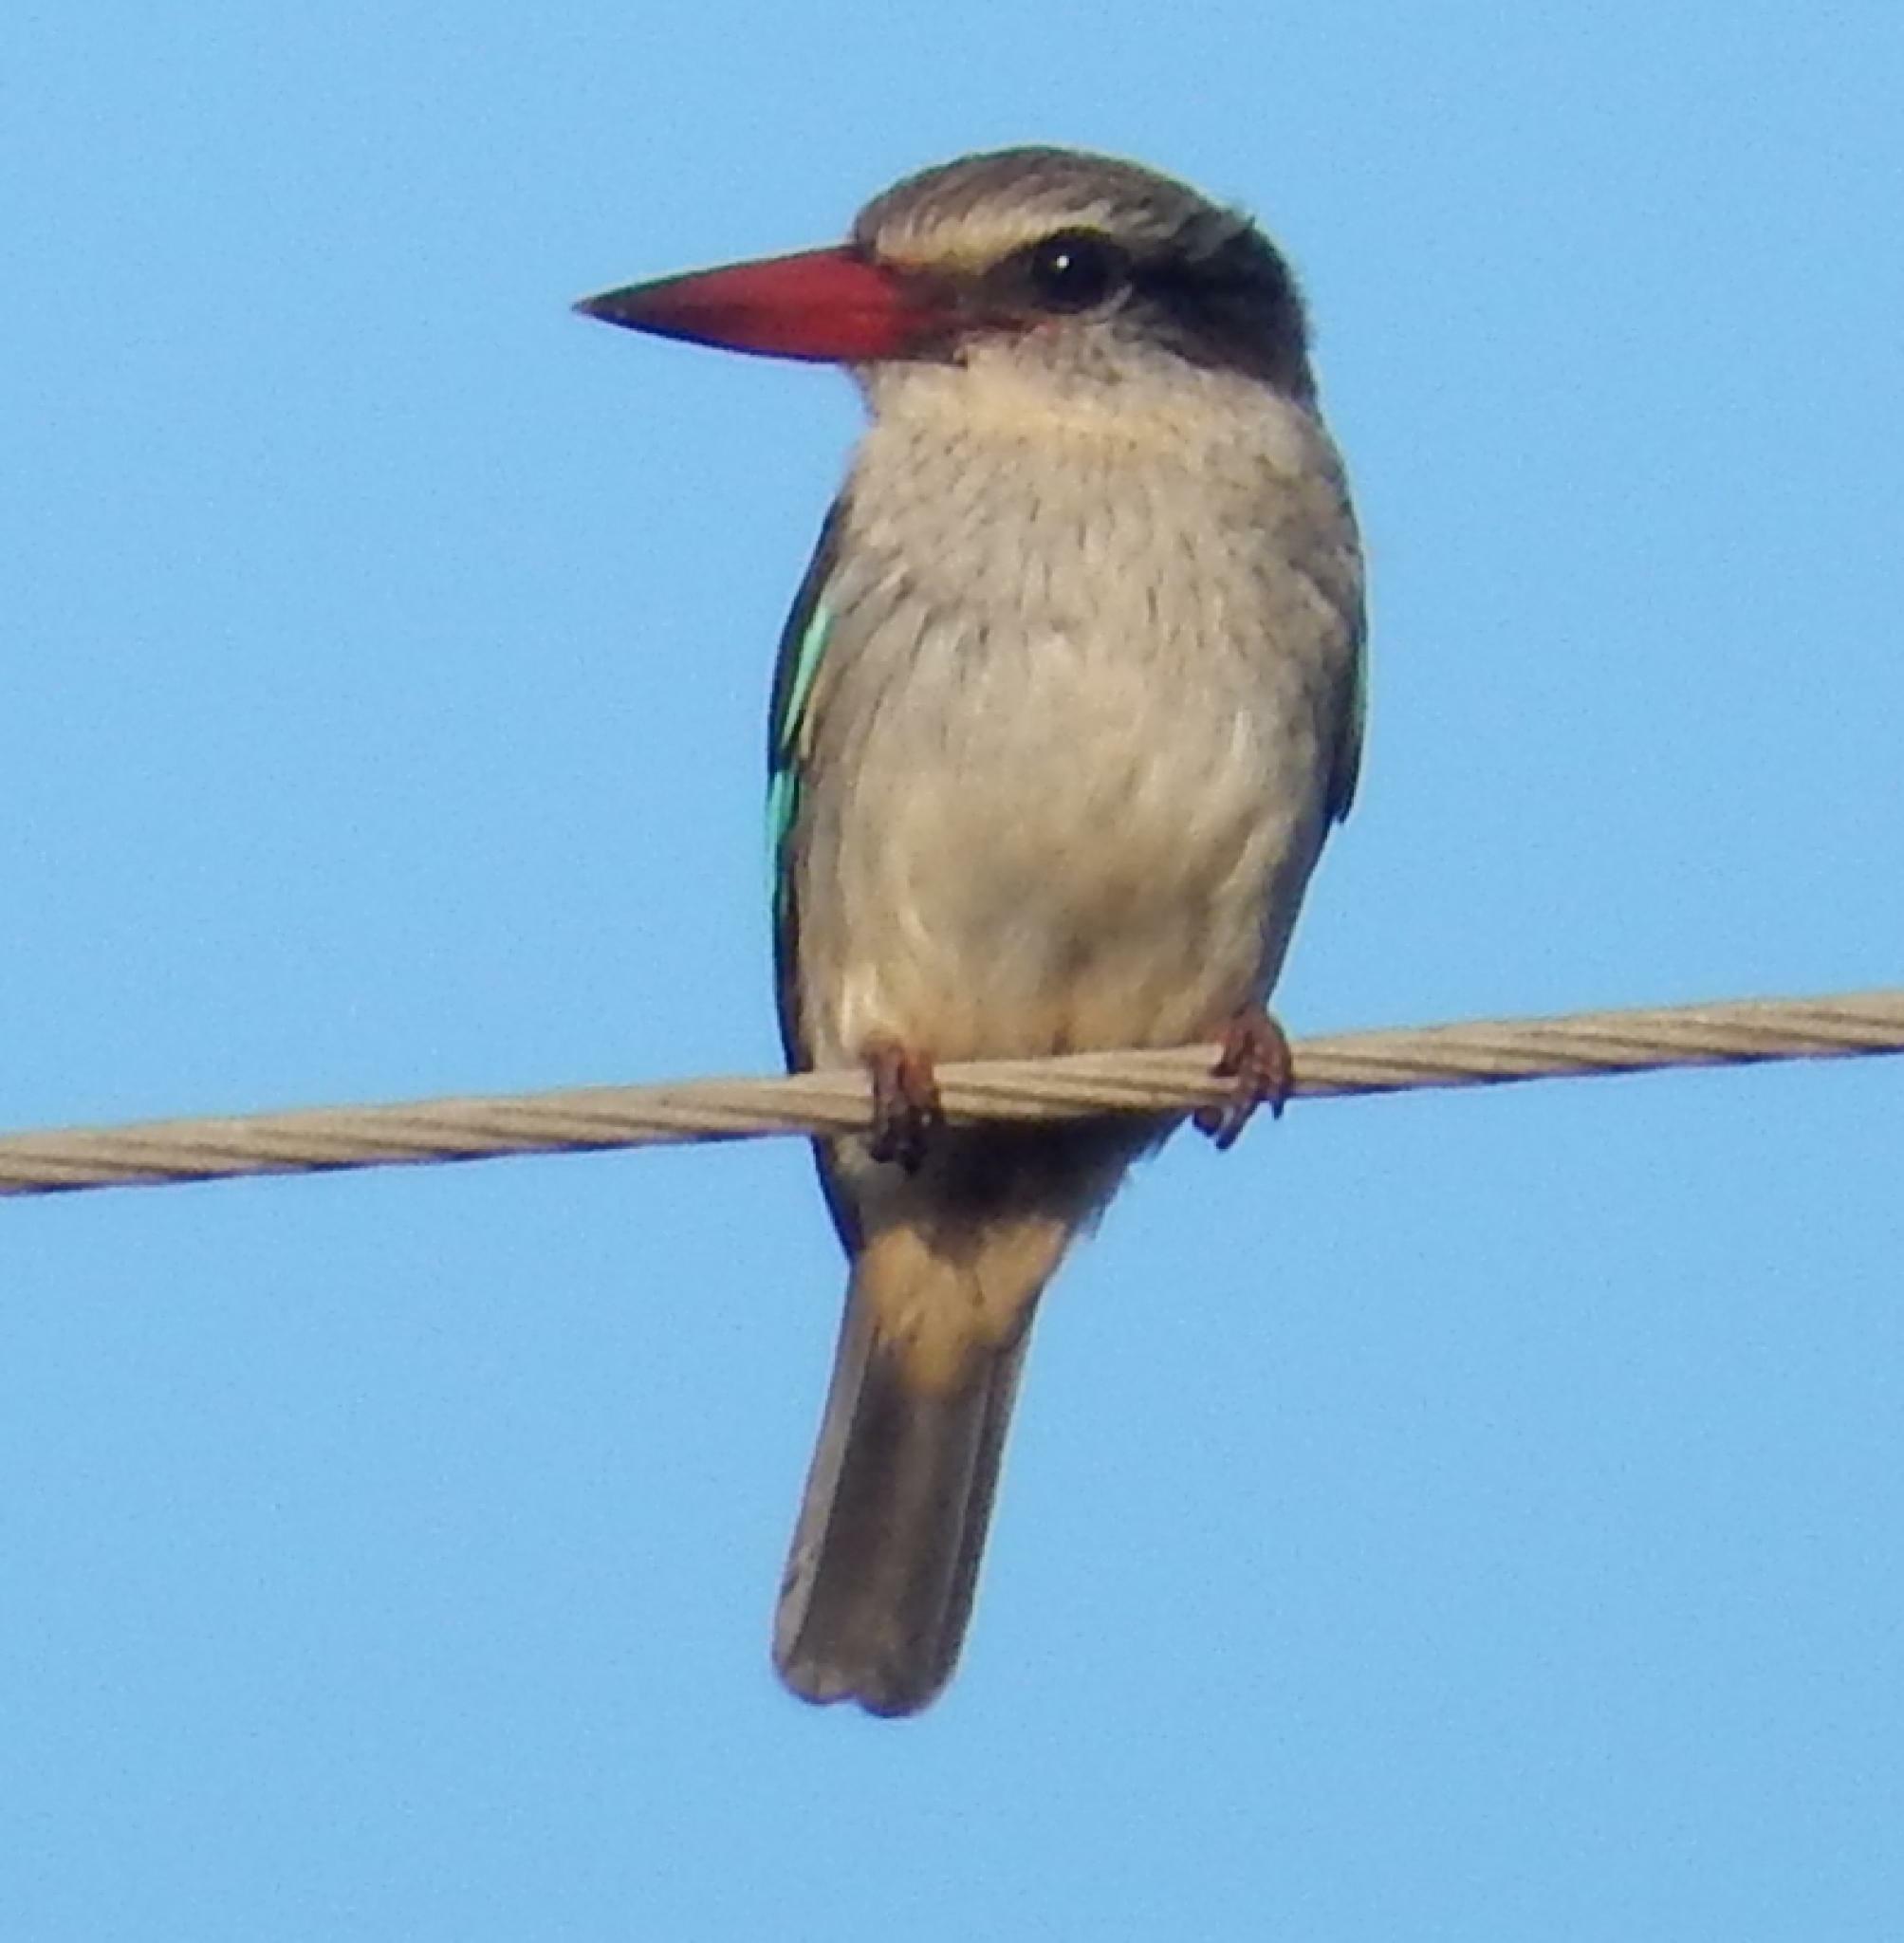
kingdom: Animalia
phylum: Chordata
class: Aves
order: Coraciiformes
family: Alcedinidae
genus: Halcyon
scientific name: Halcyon albiventris
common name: Brown-hooded kingfisher
